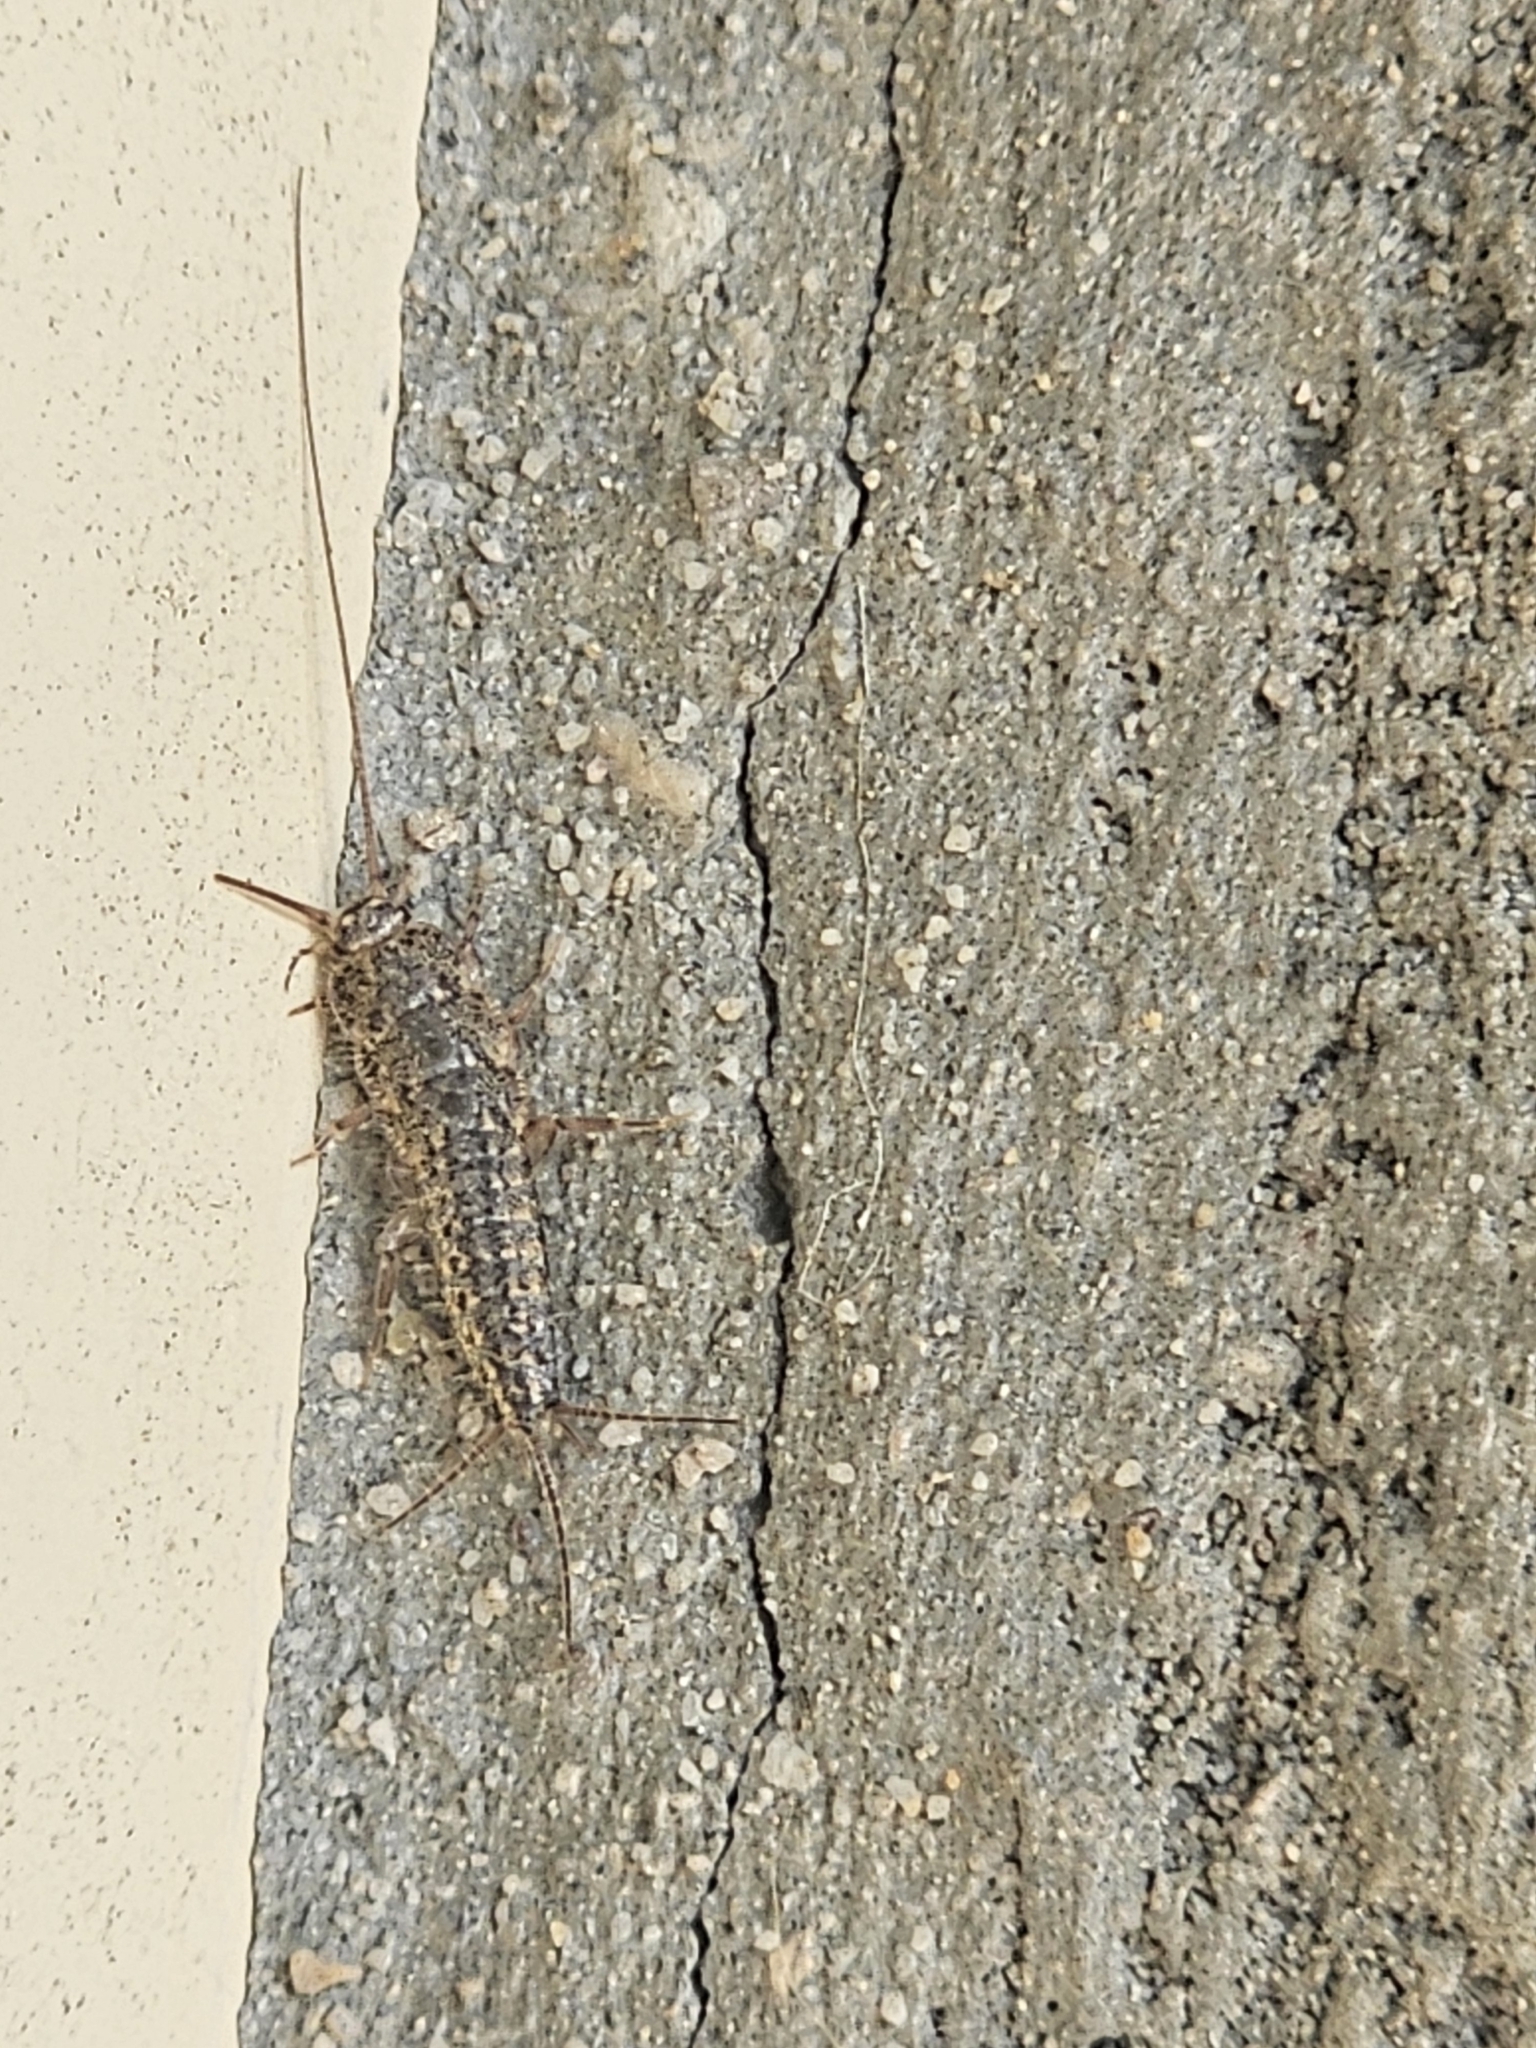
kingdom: Animalia
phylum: Arthropoda
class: Insecta
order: Zygentoma
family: Lepismatidae
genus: Ctenolepisma
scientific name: Ctenolepisma lineata
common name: Four-lined silverfish
